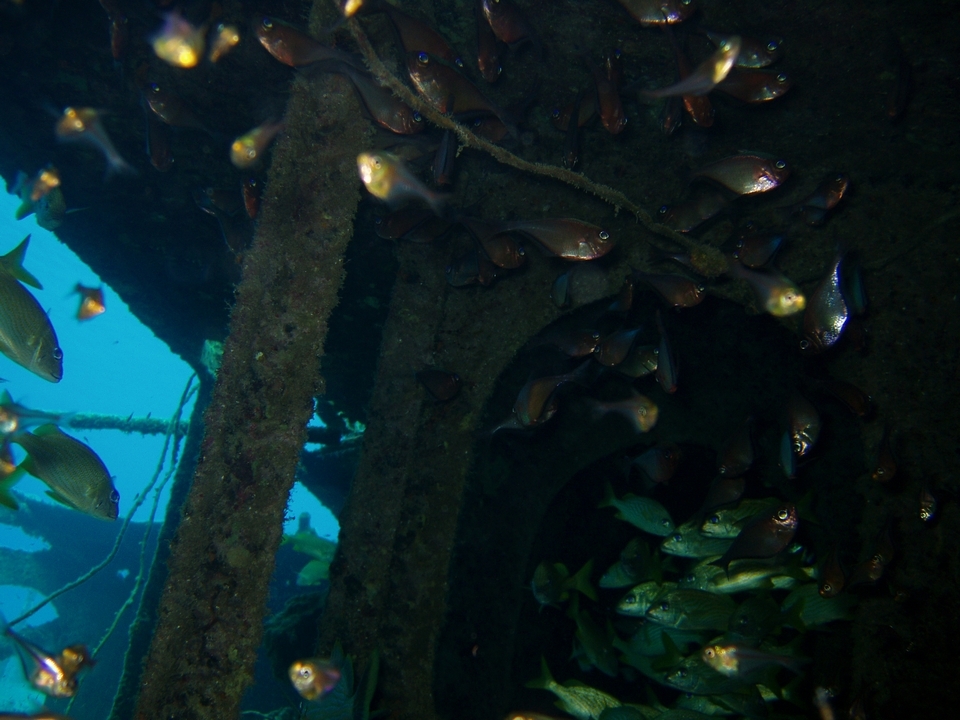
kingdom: Animalia
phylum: Chordata
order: Perciformes
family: Pempheridae
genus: Pempheris
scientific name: Pempheris schomburgkii
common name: Glassy sweeper
